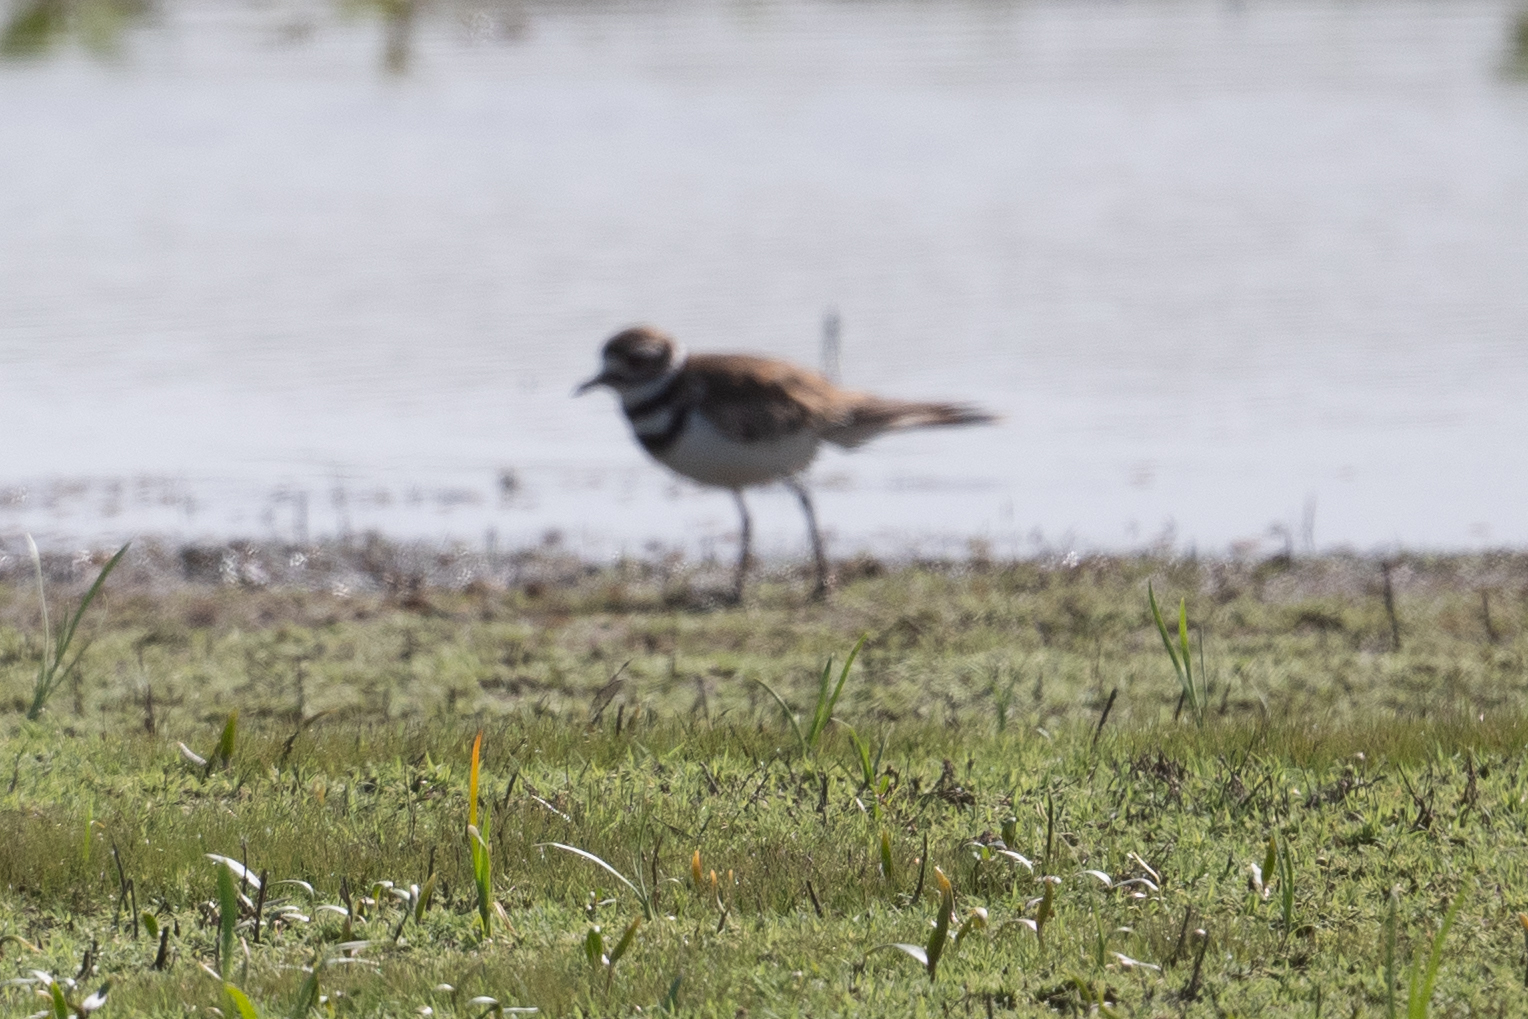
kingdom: Animalia
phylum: Chordata
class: Aves
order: Charadriiformes
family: Charadriidae
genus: Charadrius
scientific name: Charadrius vociferus
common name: Killdeer
